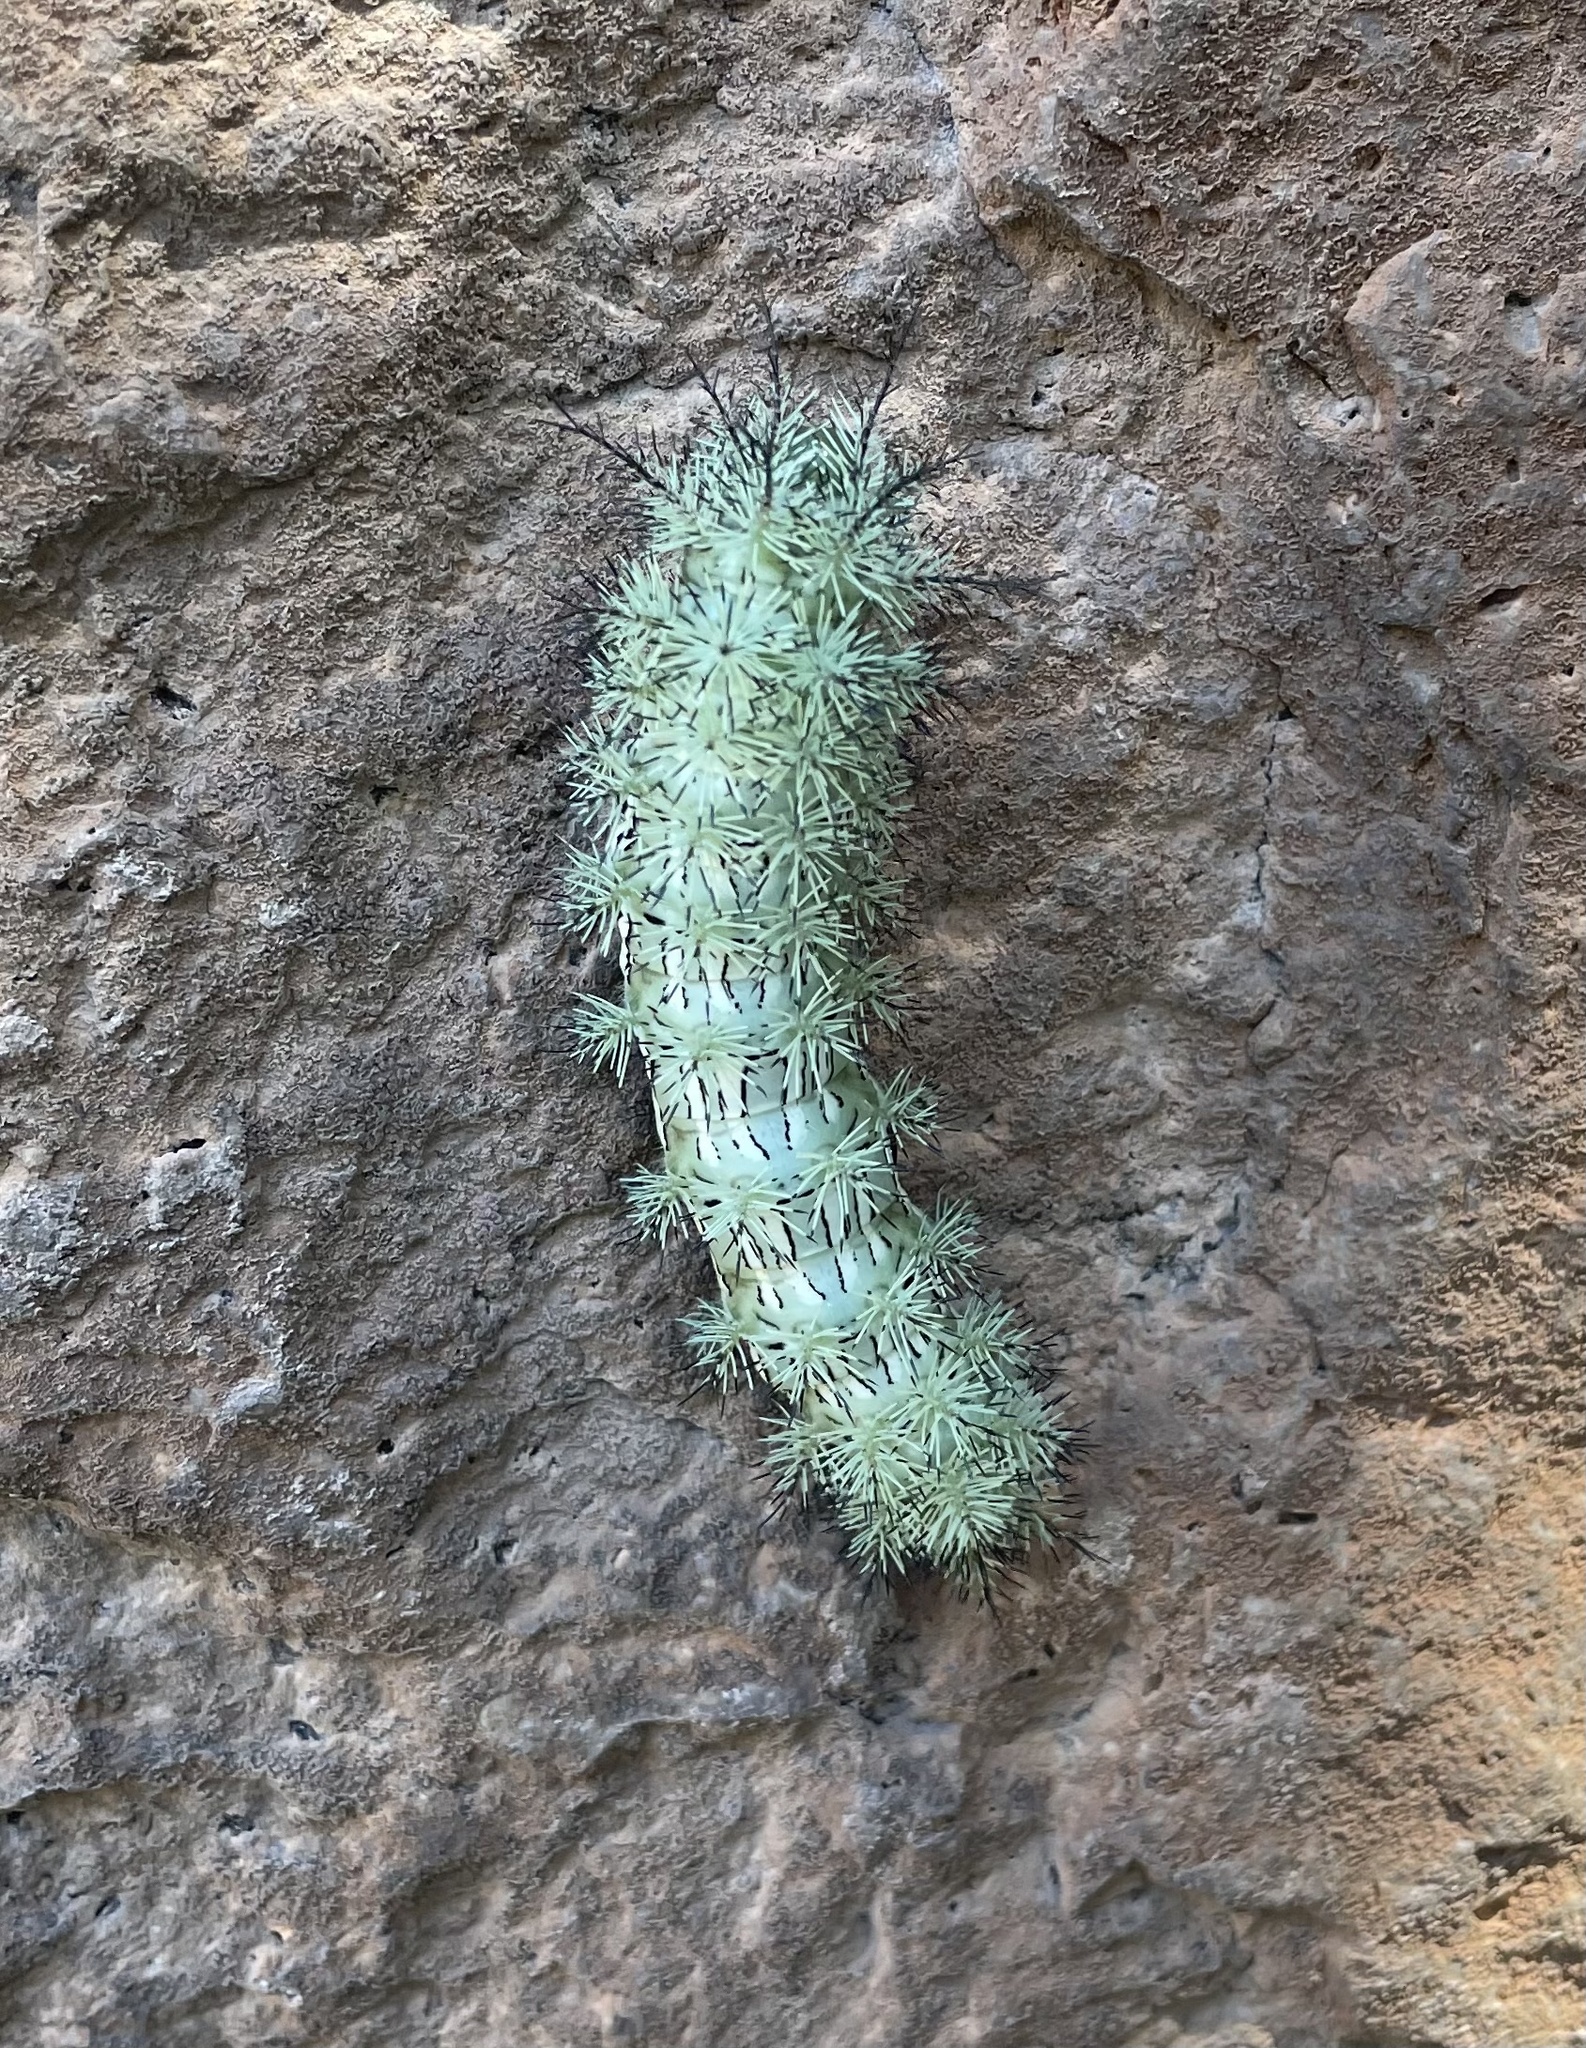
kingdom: Animalia
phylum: Arthropoda
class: Insecta
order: Lepidoptera
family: Saturniidae
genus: Automeris
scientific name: Automeris cecrops
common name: Cecrops eyed silkmoth
